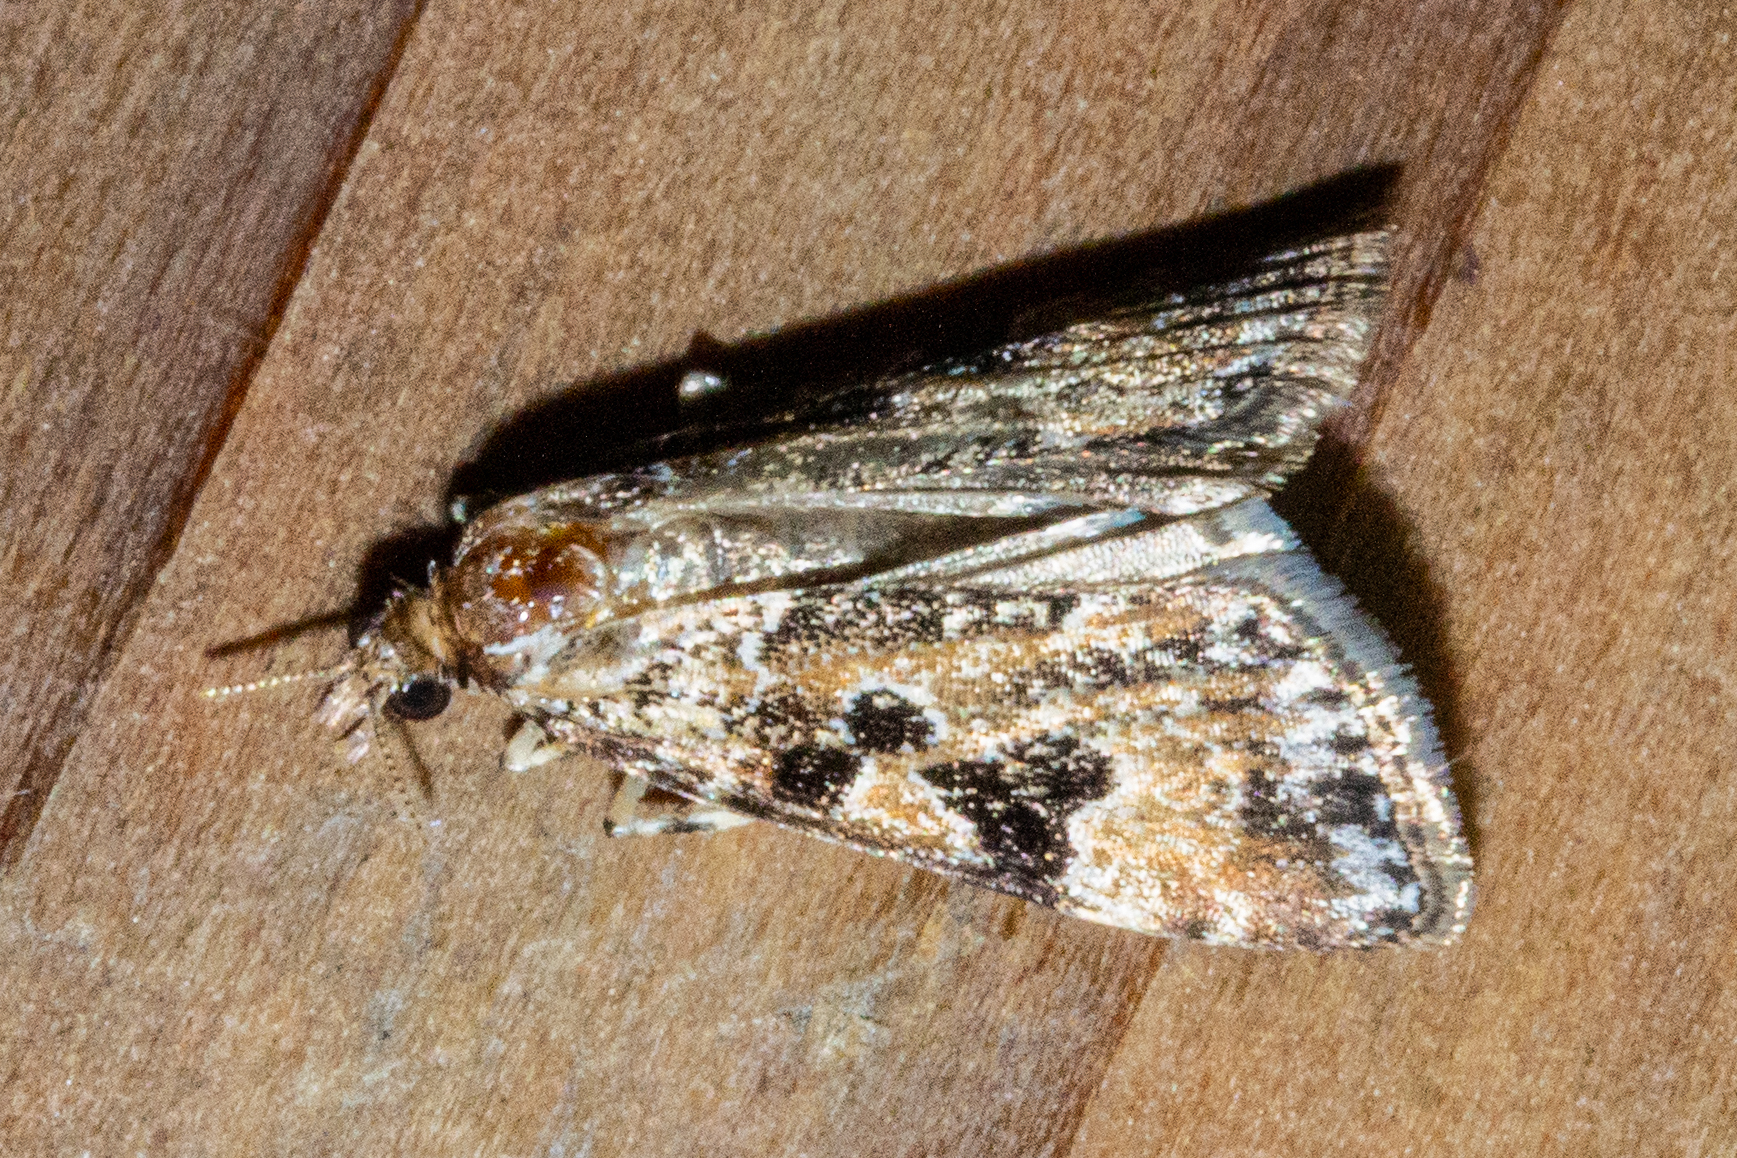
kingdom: Animalia
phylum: Arthropoda
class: Insecta
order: Lepidoptera
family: Crambidae
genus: Scoparia
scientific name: Scoparia ustimacula
